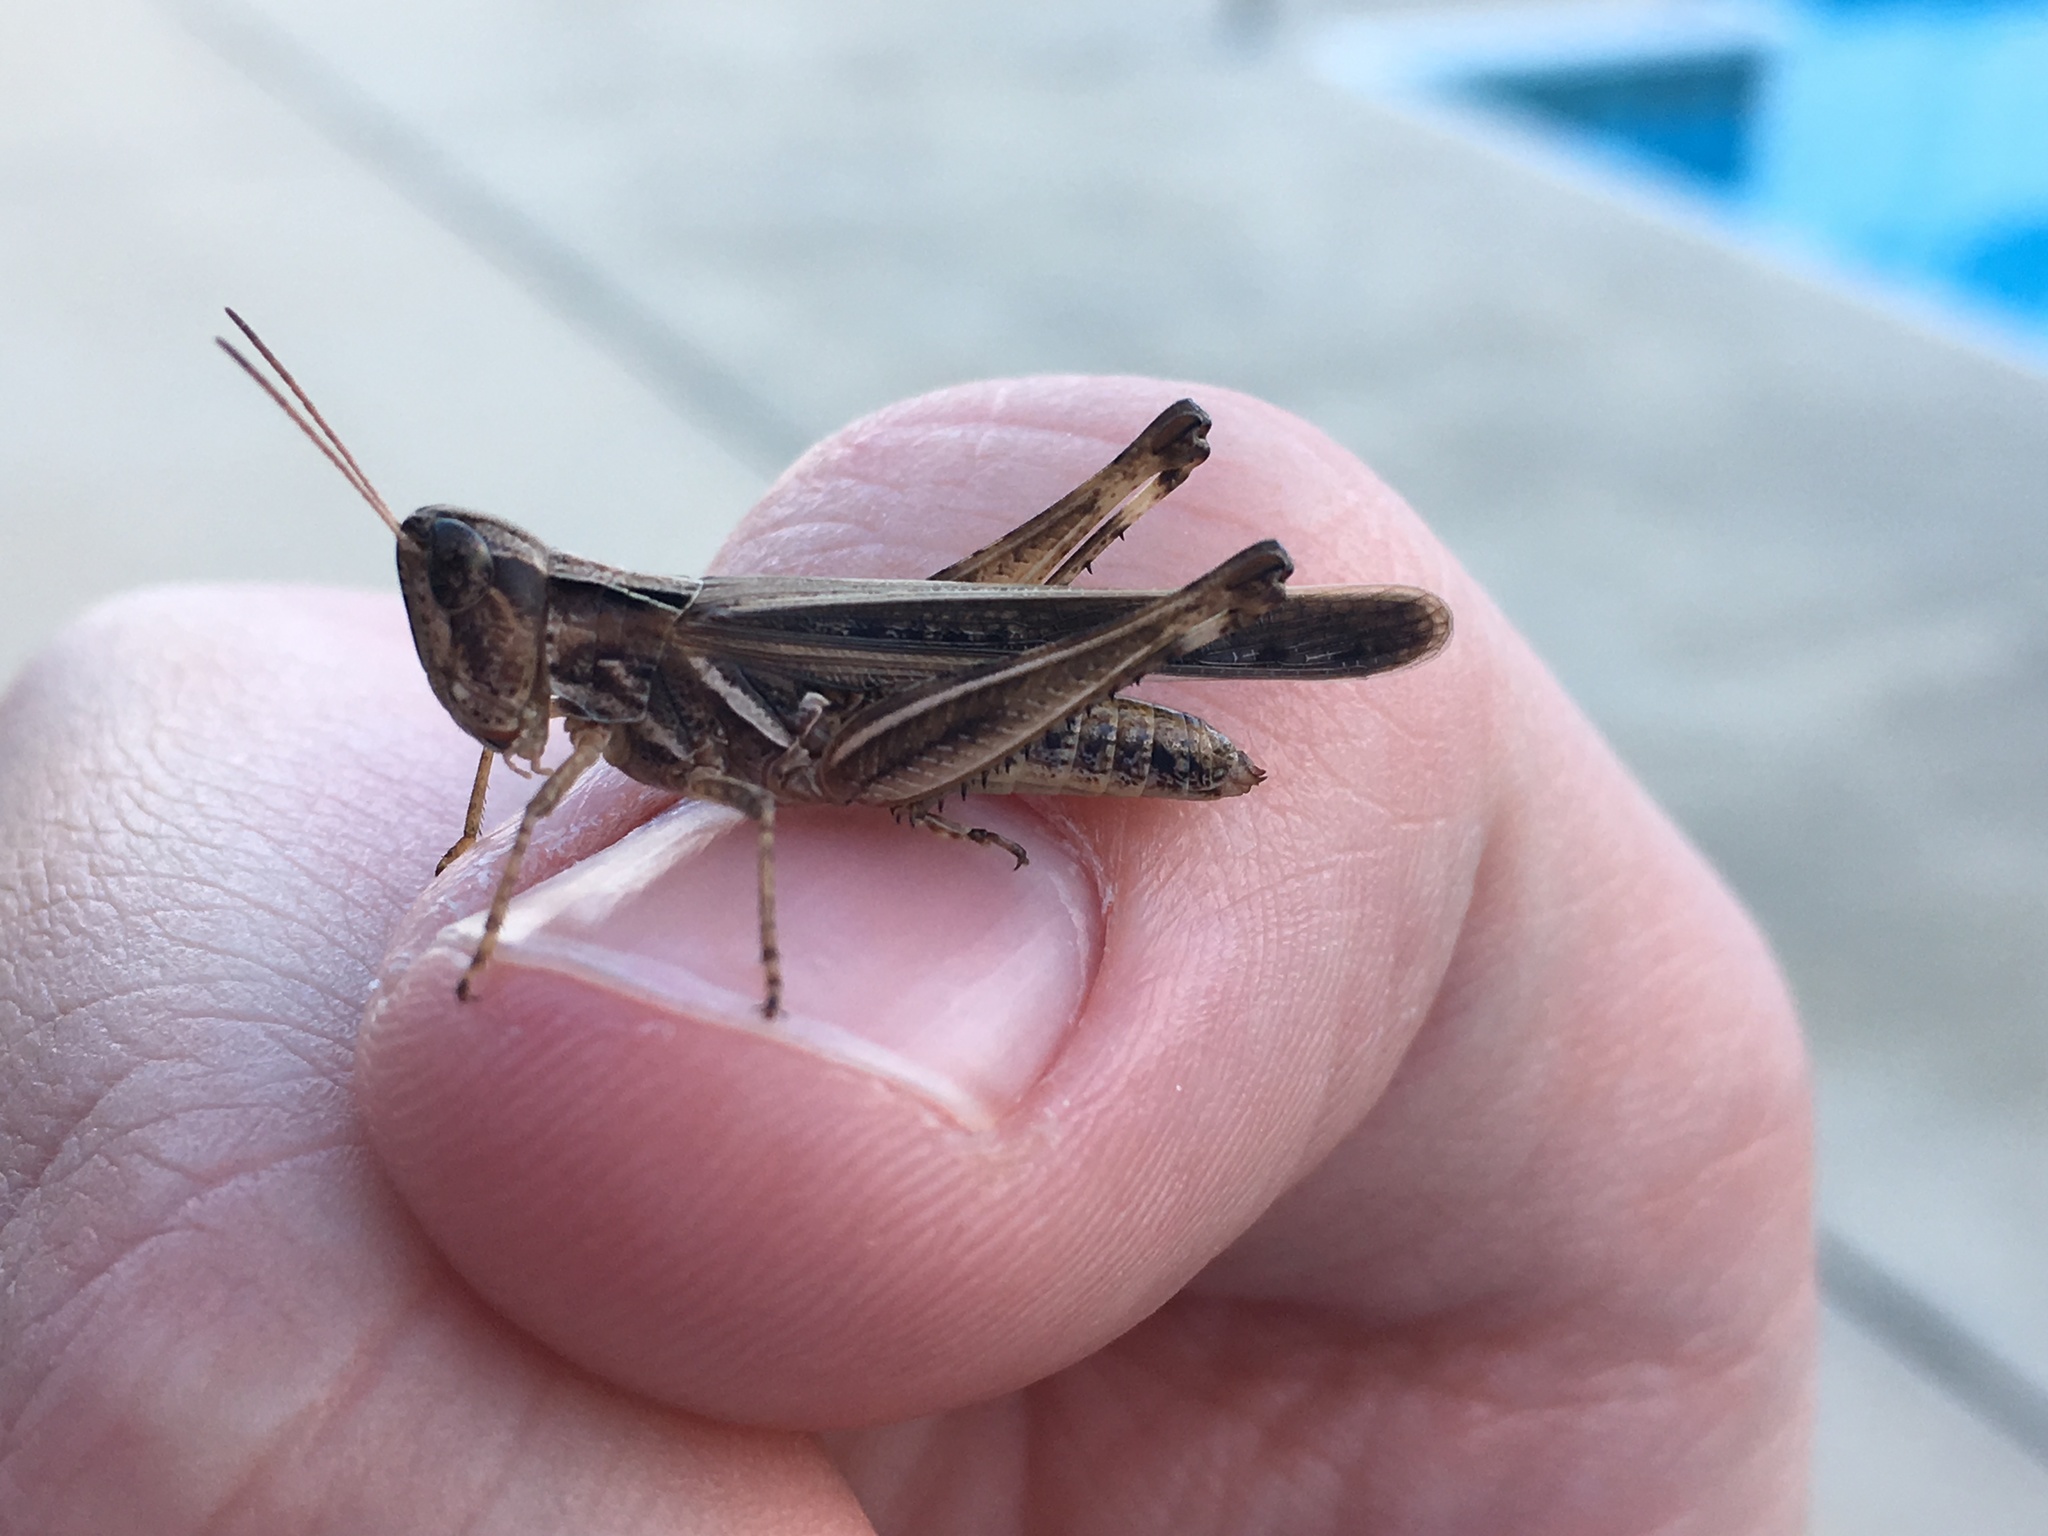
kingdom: Animalia
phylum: Arthropoda
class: Insecta
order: Orthoptera
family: Acrididae
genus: Orphulella
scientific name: Orphulella pelidna
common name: Spotted-wing grasshopper
